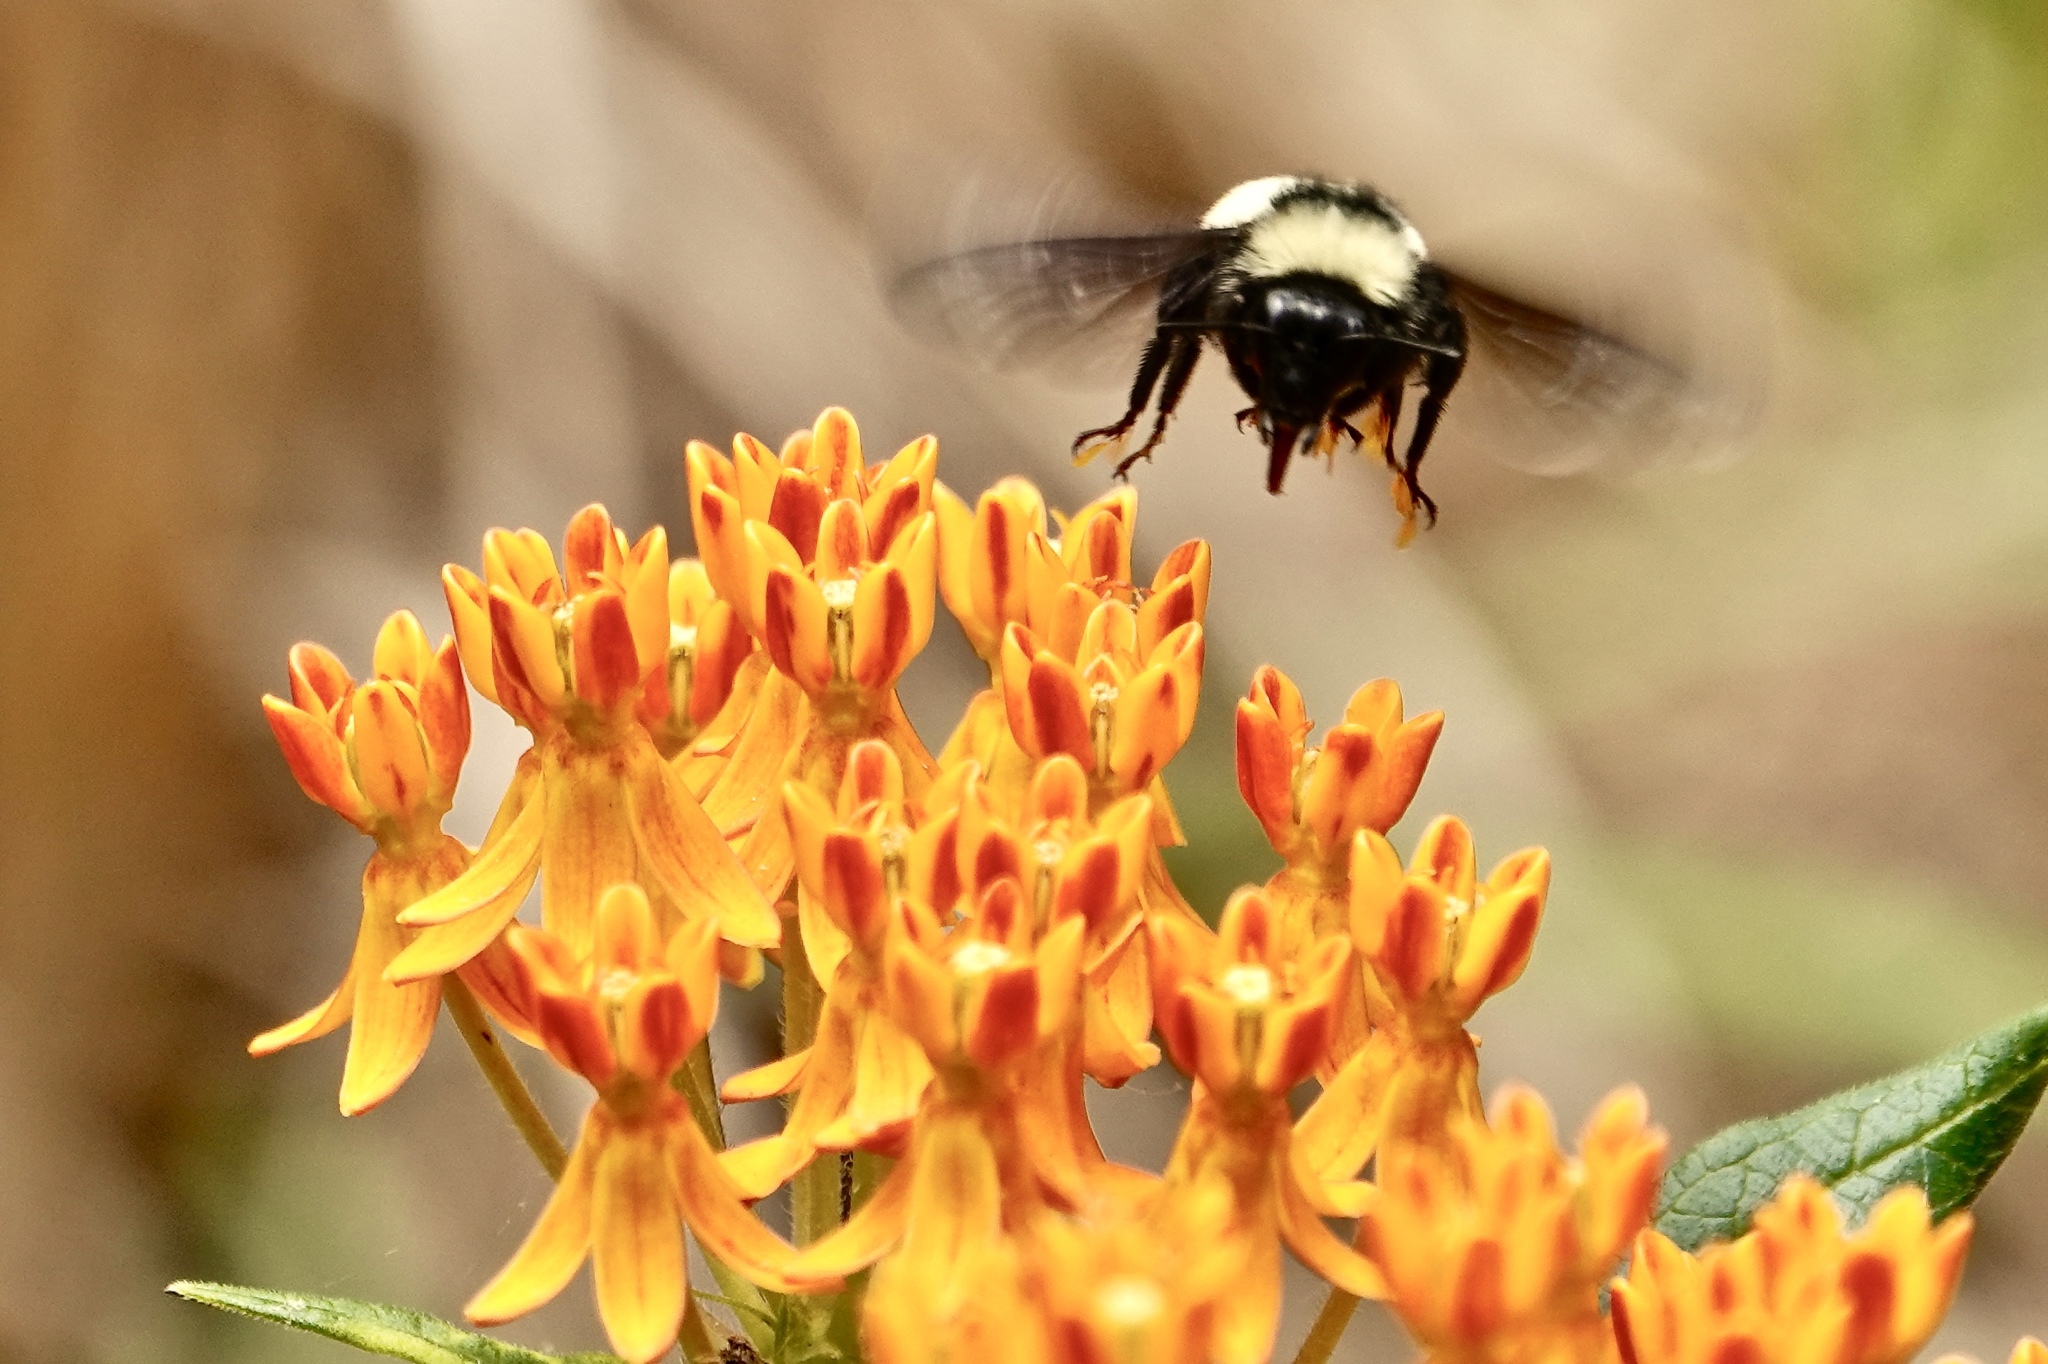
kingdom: Animalia
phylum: Arthropoda
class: Insecta
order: Hymenoptera
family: Apidae
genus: Bombus
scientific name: Bombus pensylvanicus
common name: Bumble bee
